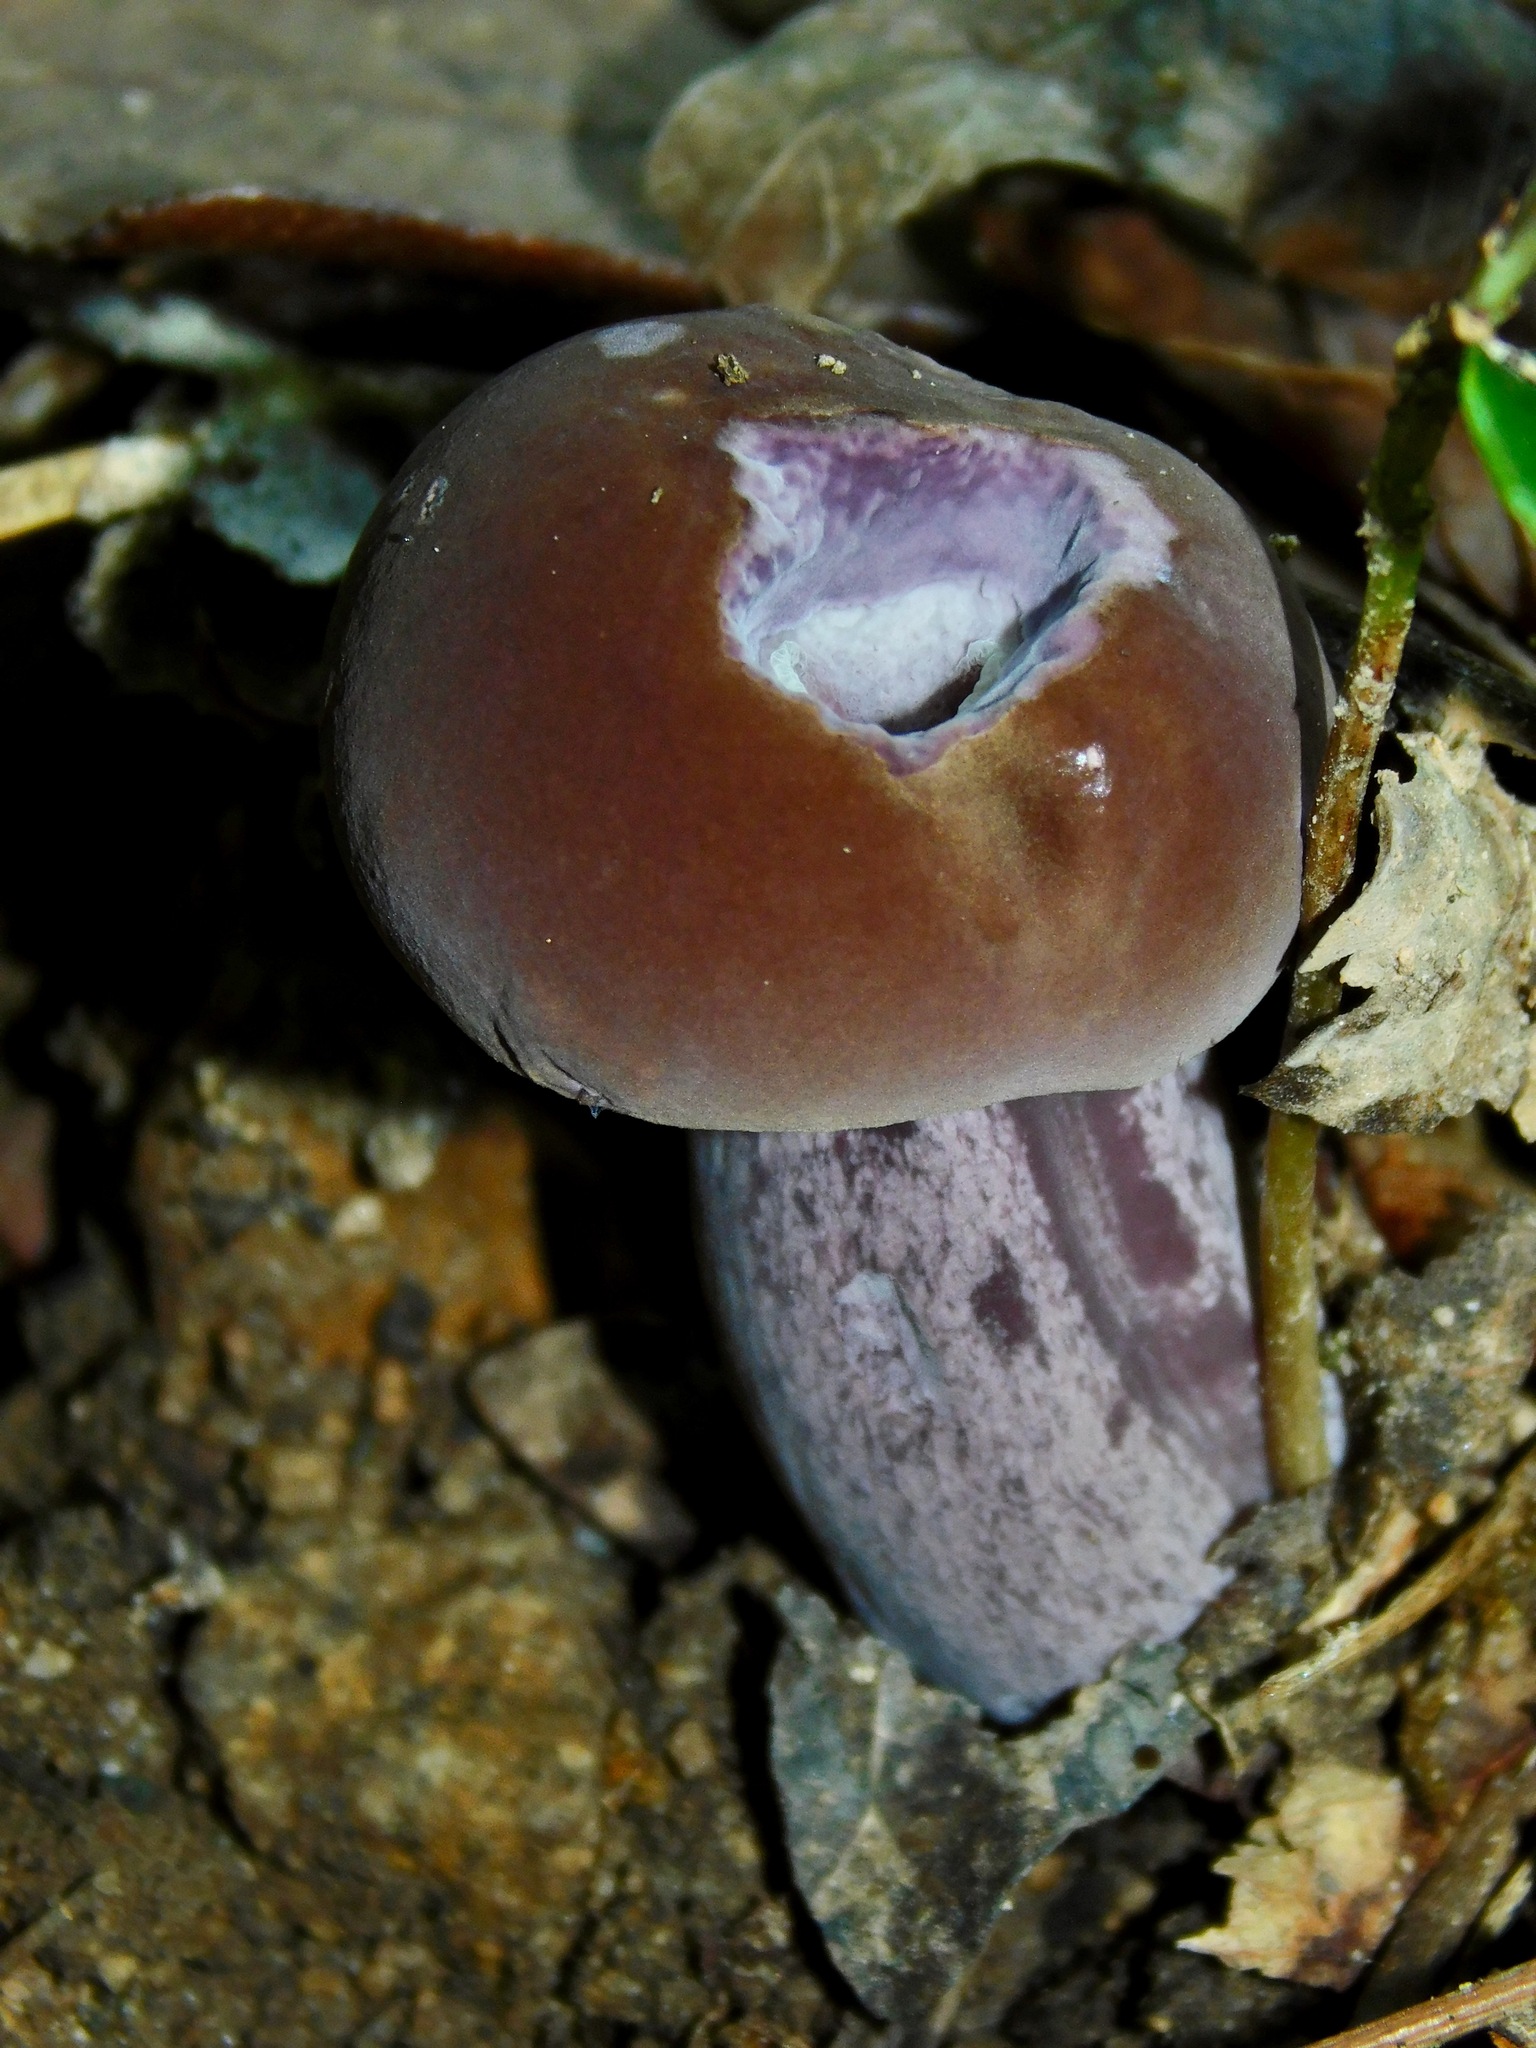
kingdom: Fungi
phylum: Basidiomycota
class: Agaricomycetes
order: Boletales
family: Boletaceae
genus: Tylopilus
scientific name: Tylopilus alboater
